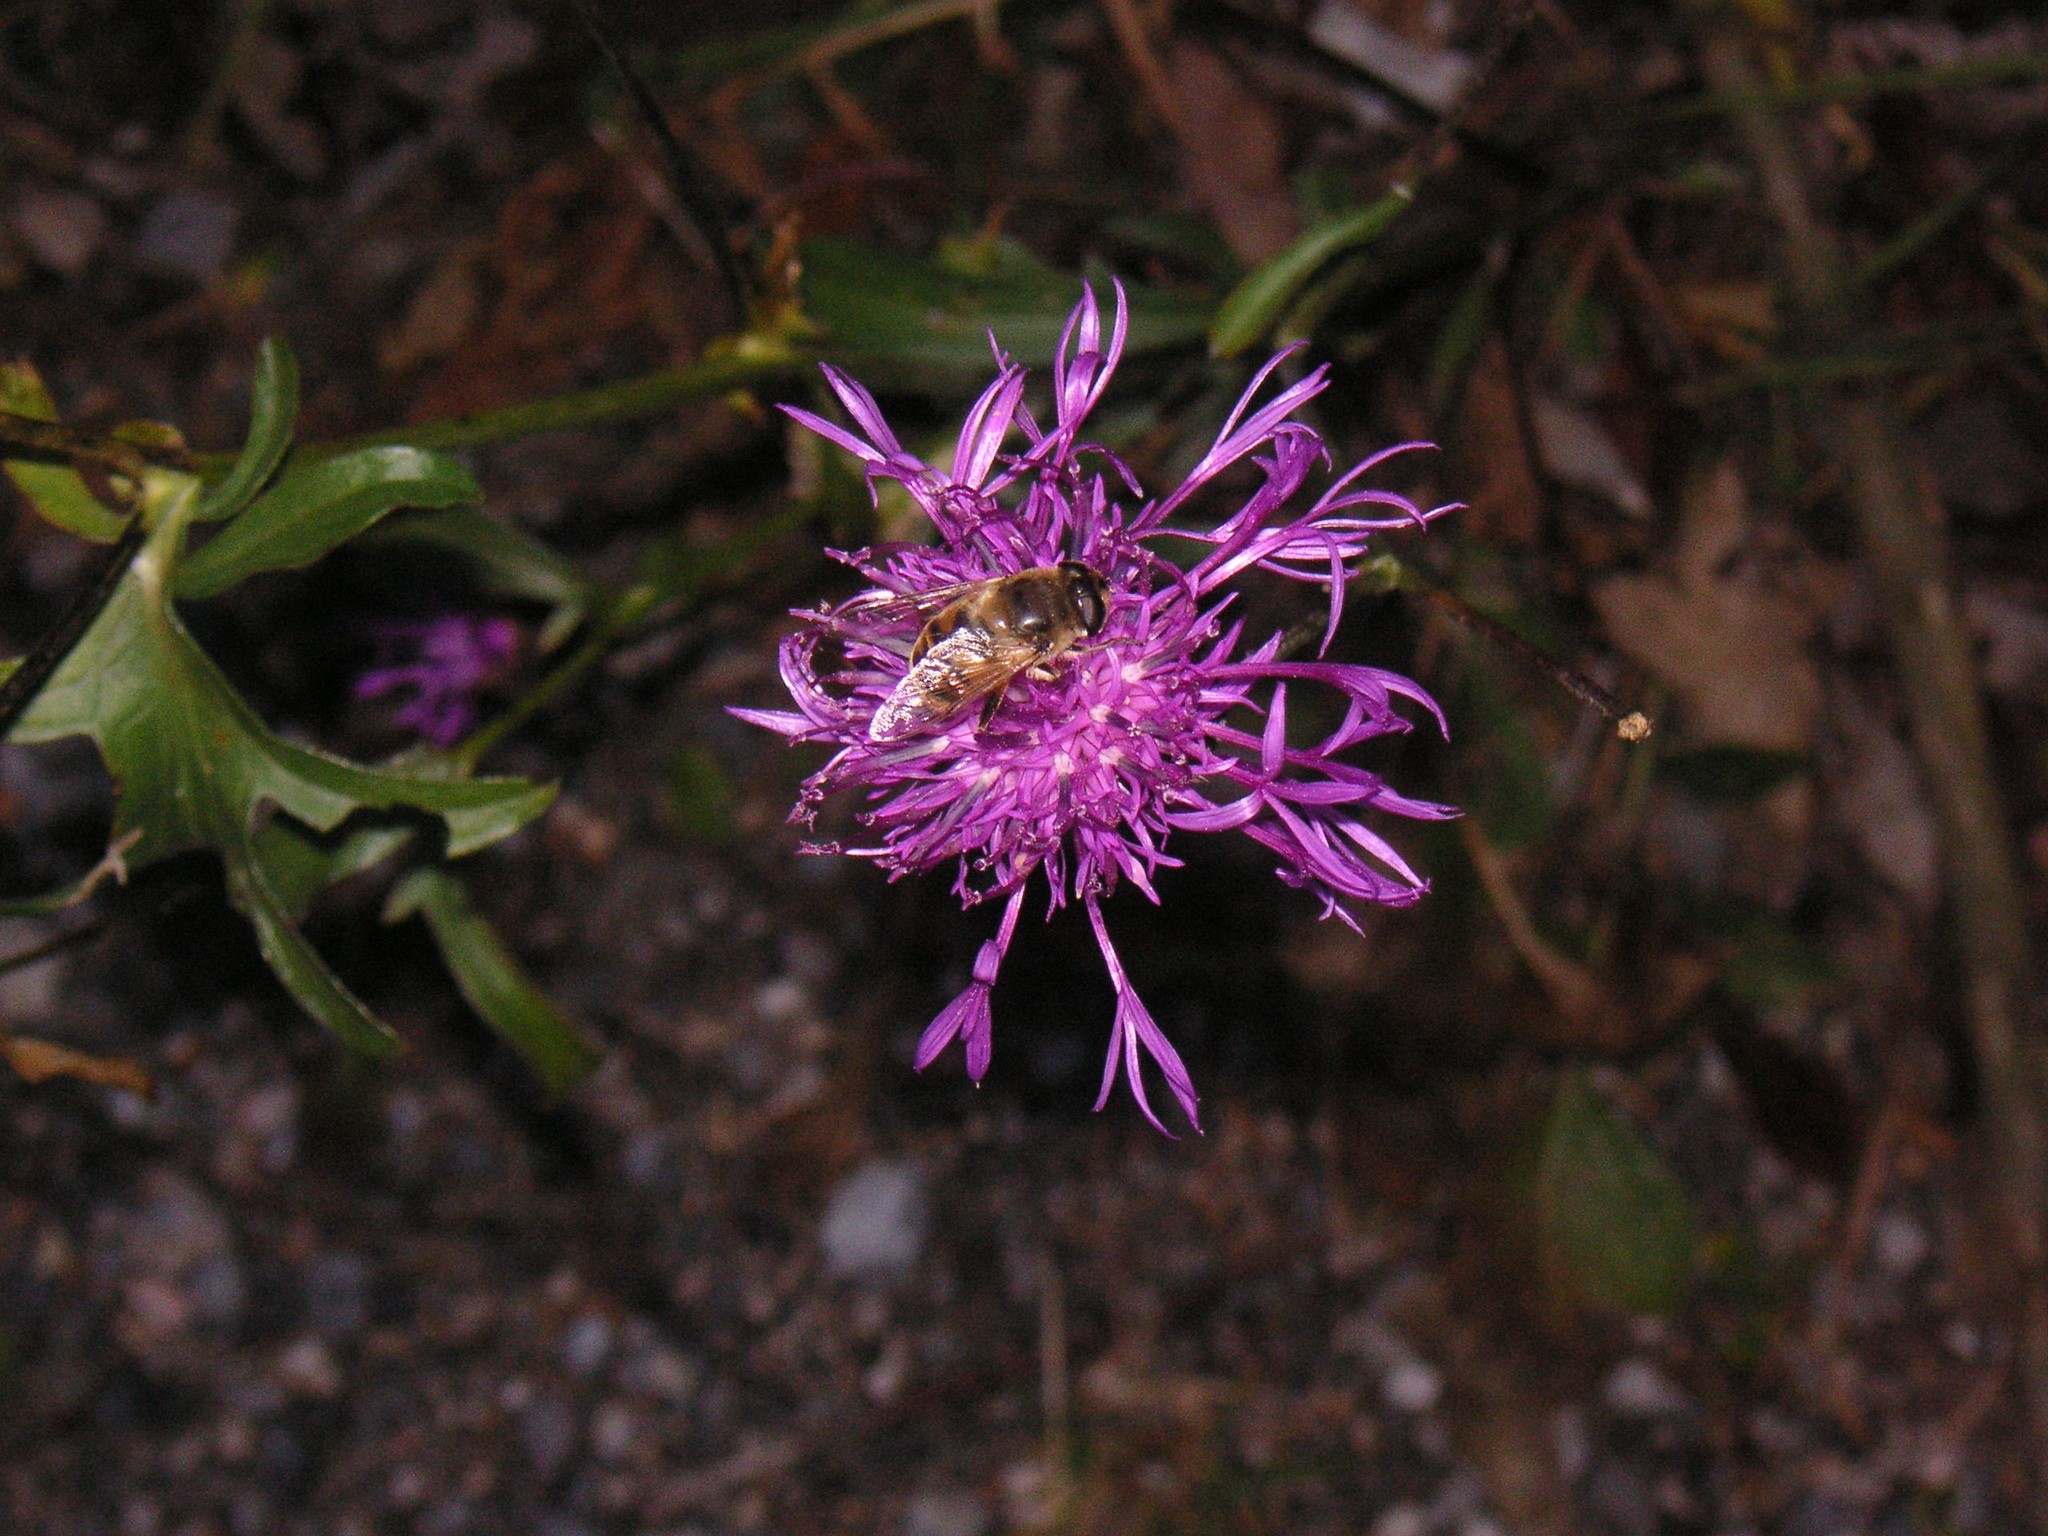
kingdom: Plantae
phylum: Tracheophyta
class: Magnoliopsida
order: Asterales
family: Asteraceae
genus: Centaurea
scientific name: Centaurea scabiosa
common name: Greater knapweed
